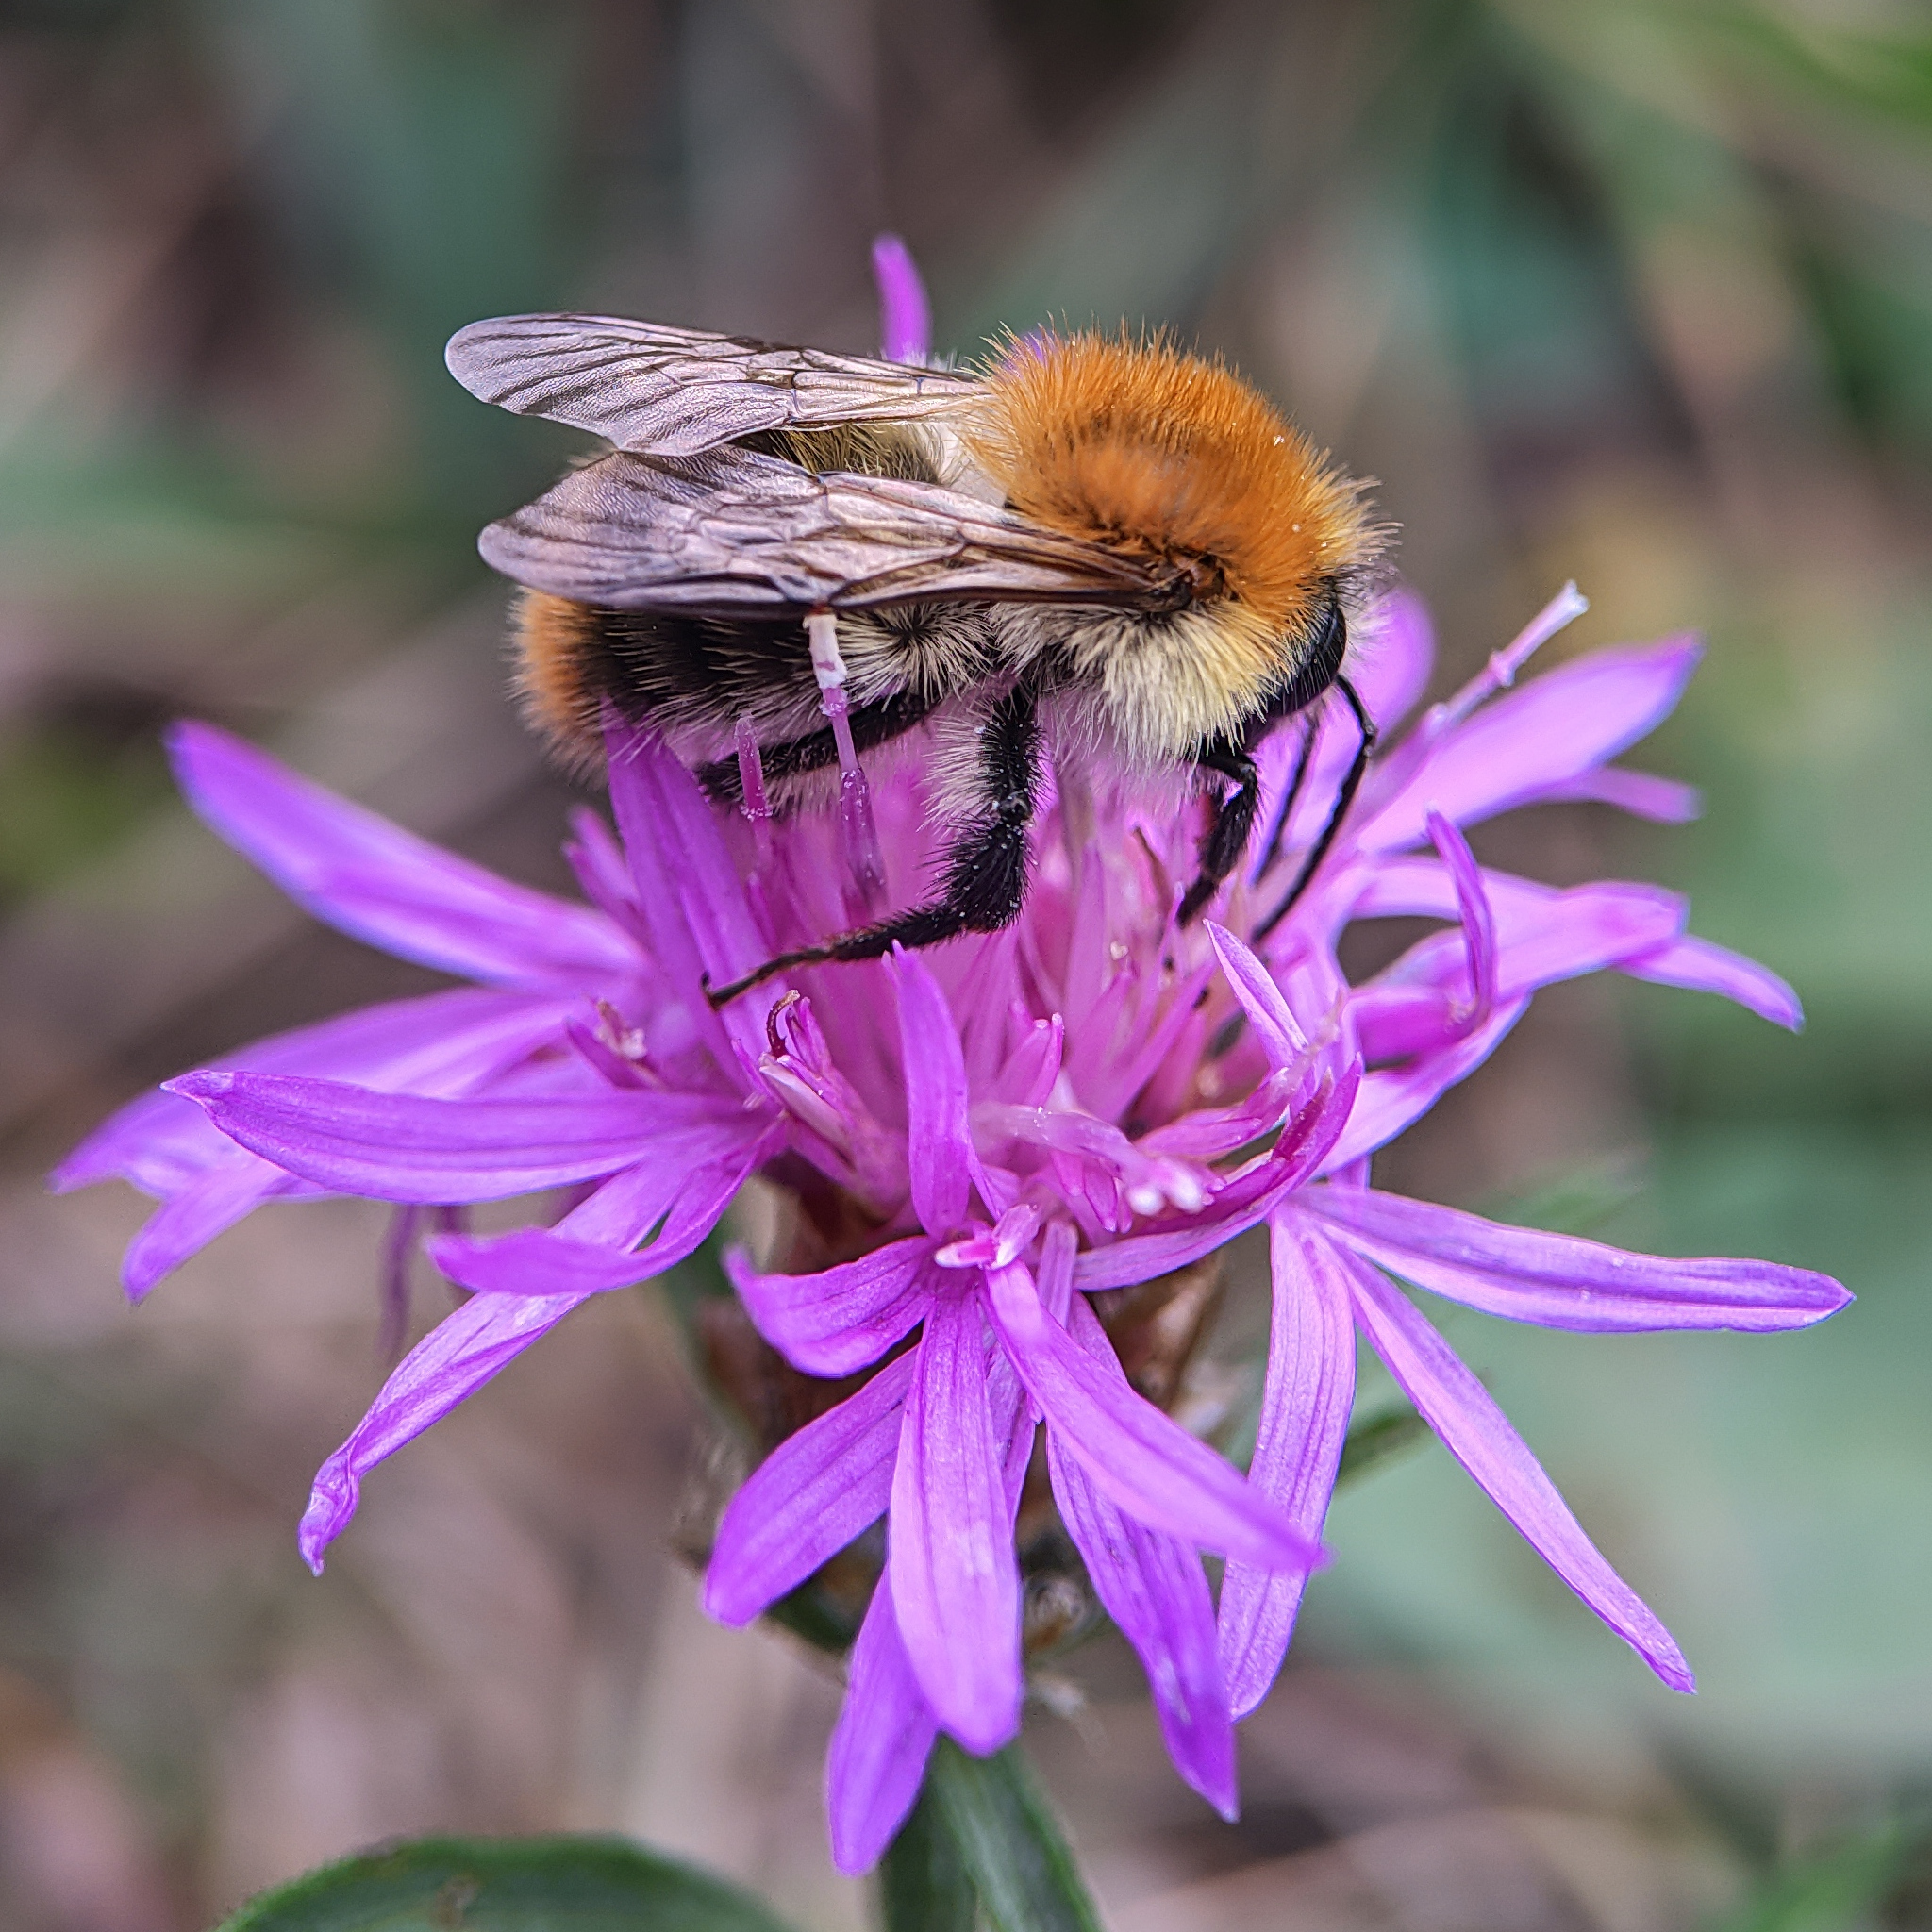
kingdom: Animalia
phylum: Arthropoda
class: Insecta
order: Hymenoptera
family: Apidae
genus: Bombus
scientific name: Bombus pascuorum
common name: Common carder bee
